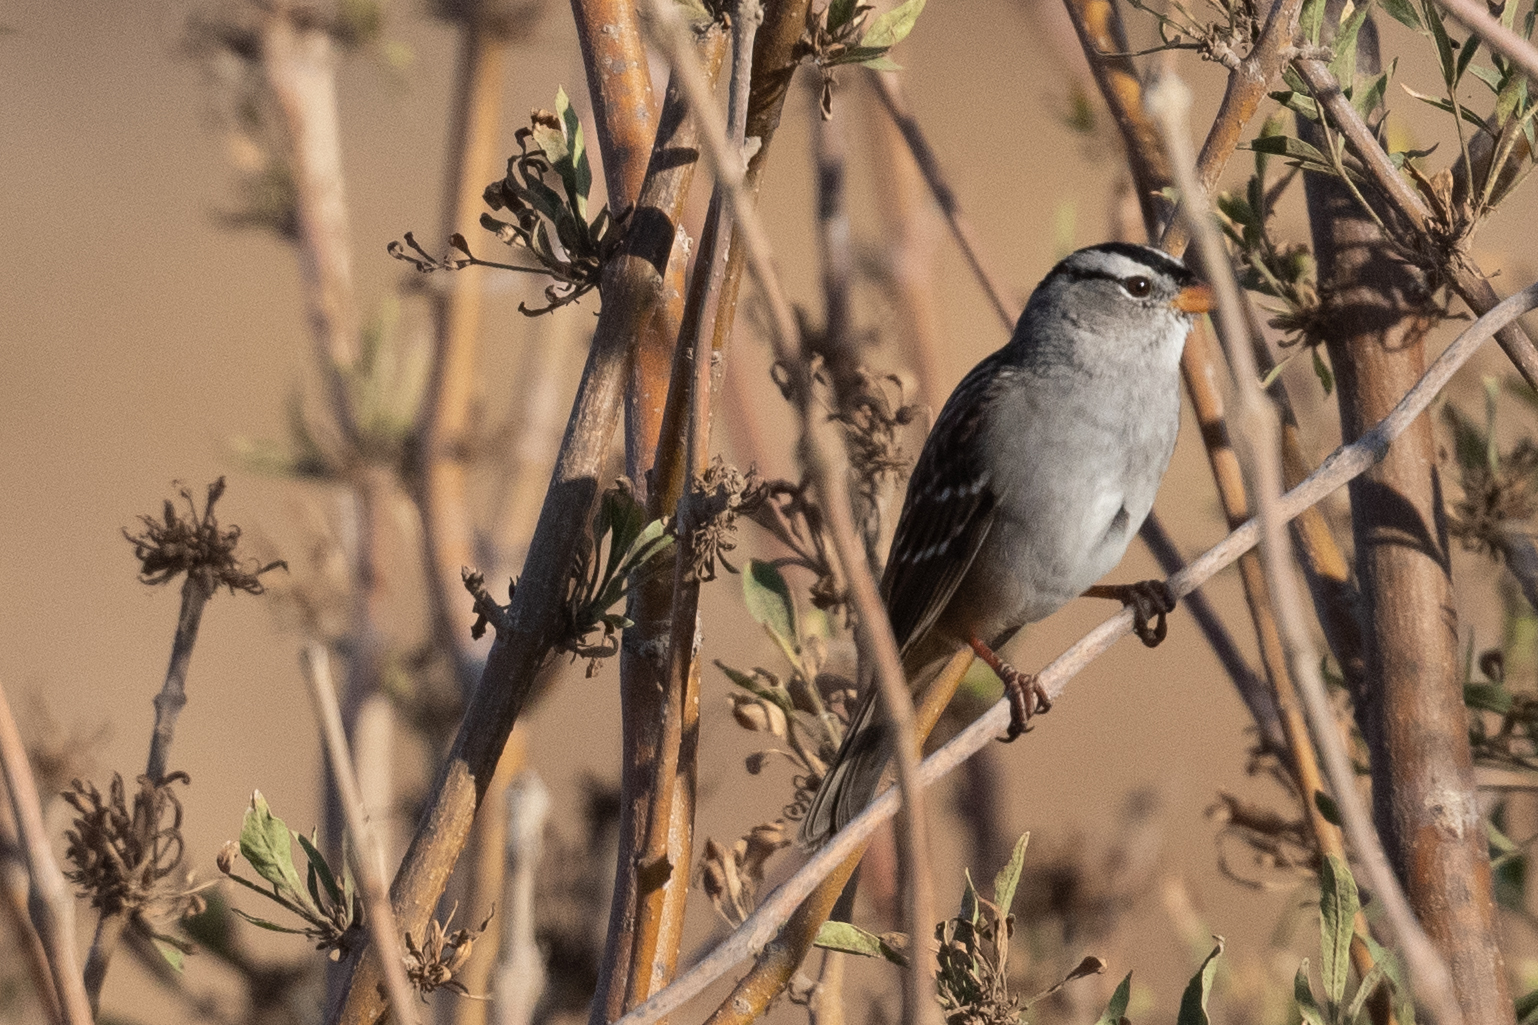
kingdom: Animalia
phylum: Chordata
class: Aves
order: Passeriformes
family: Passerellidae
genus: Zonotrichia
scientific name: Zonotrichia leucophrys
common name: White-crowned sparrow
